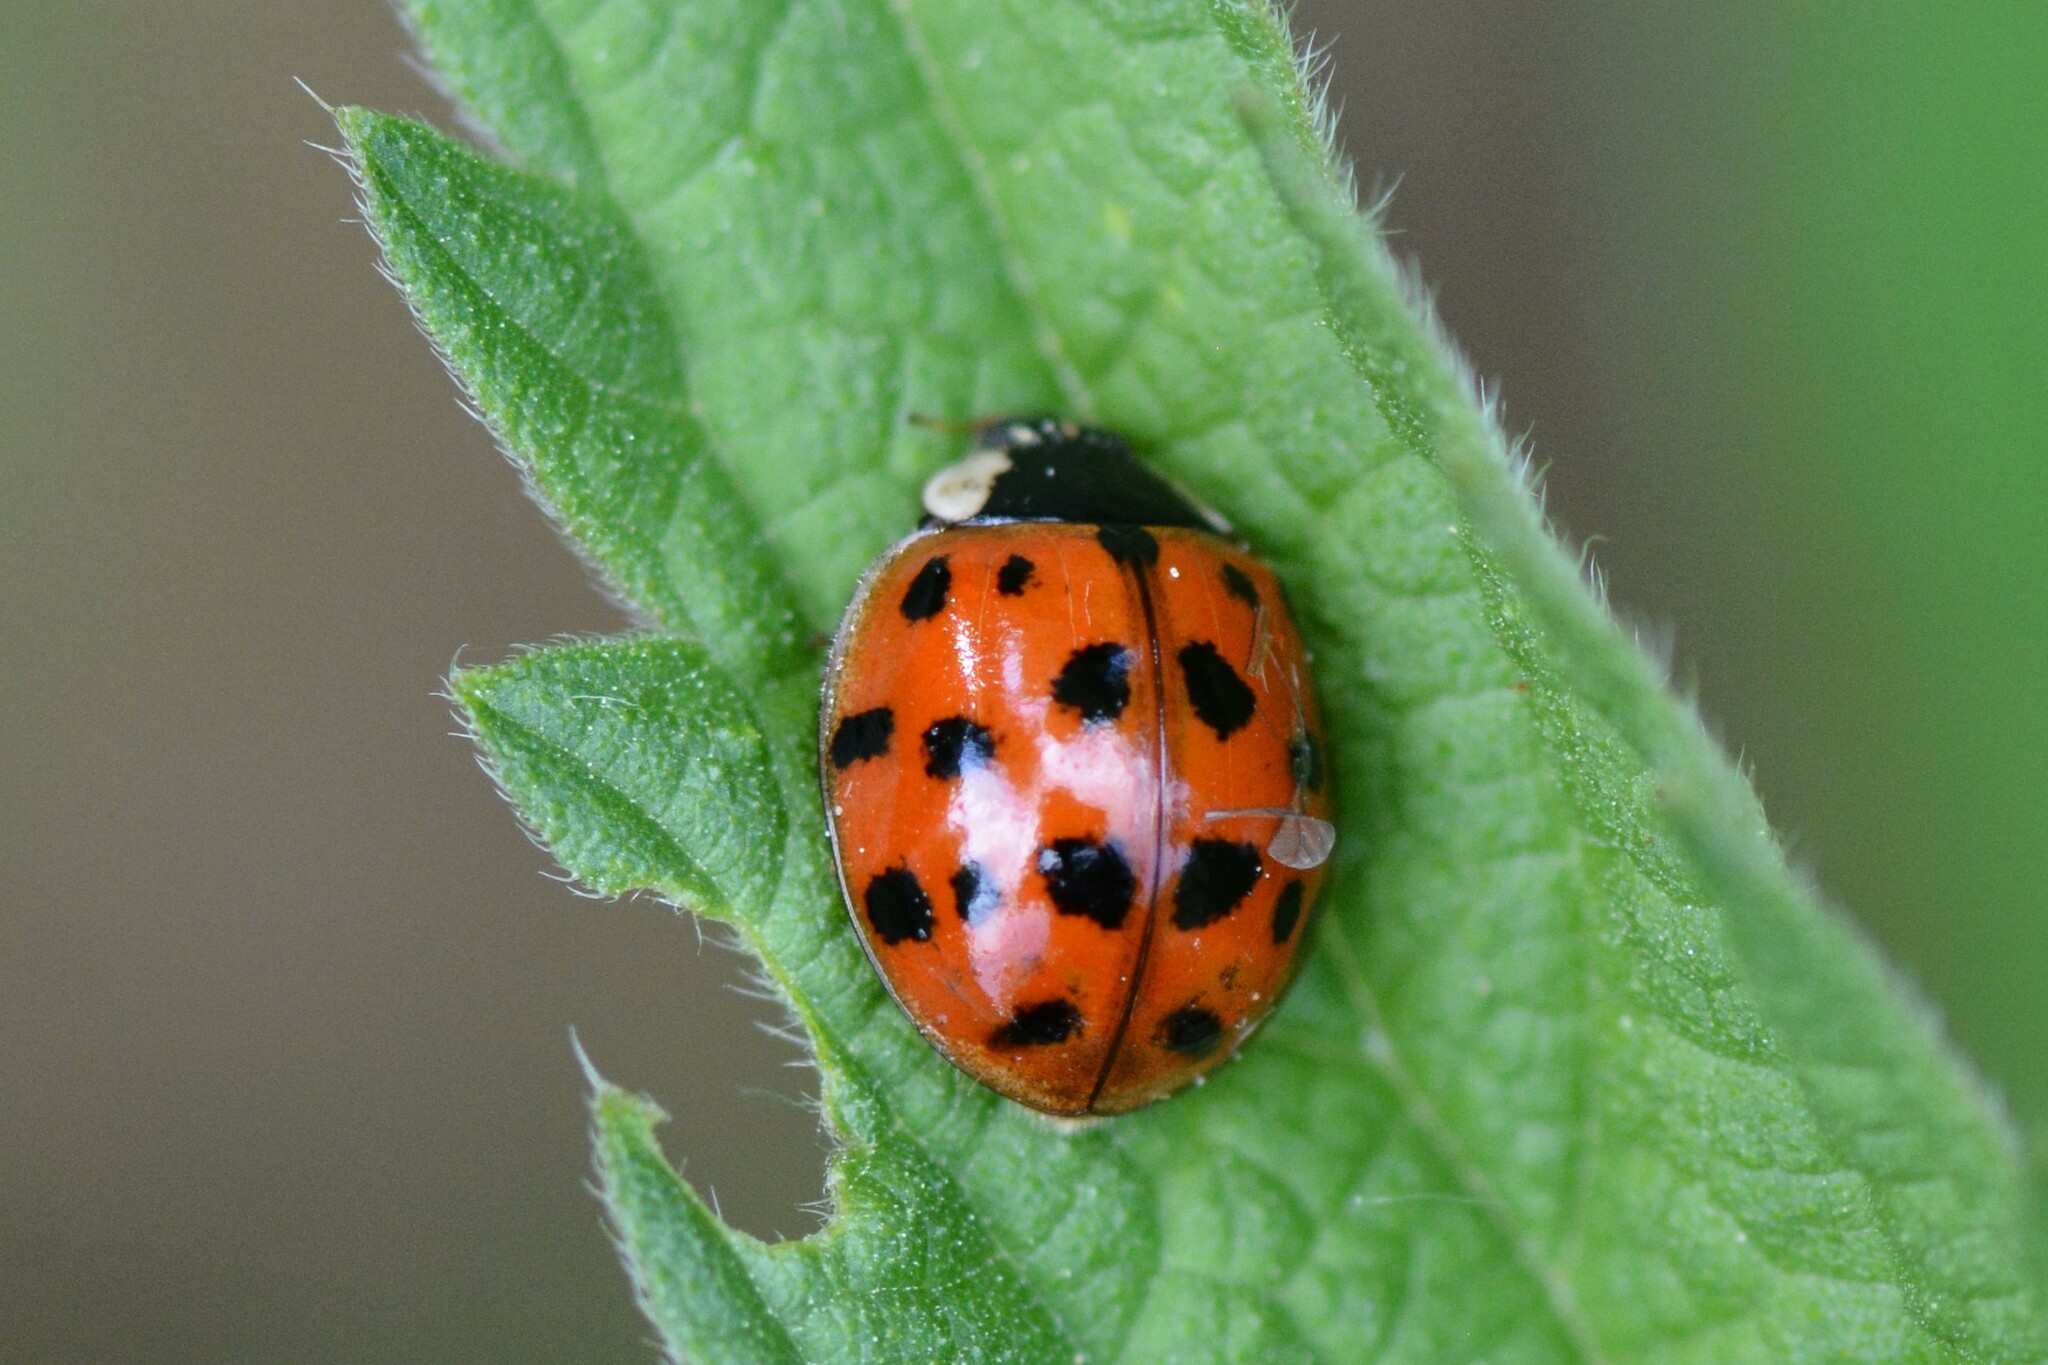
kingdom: Animalia
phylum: Arthropoda
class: Insecta
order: Coleoptera
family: Coccinellidae
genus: Harmonia
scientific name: Harmonia axyridis
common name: Harlequin ladybird
